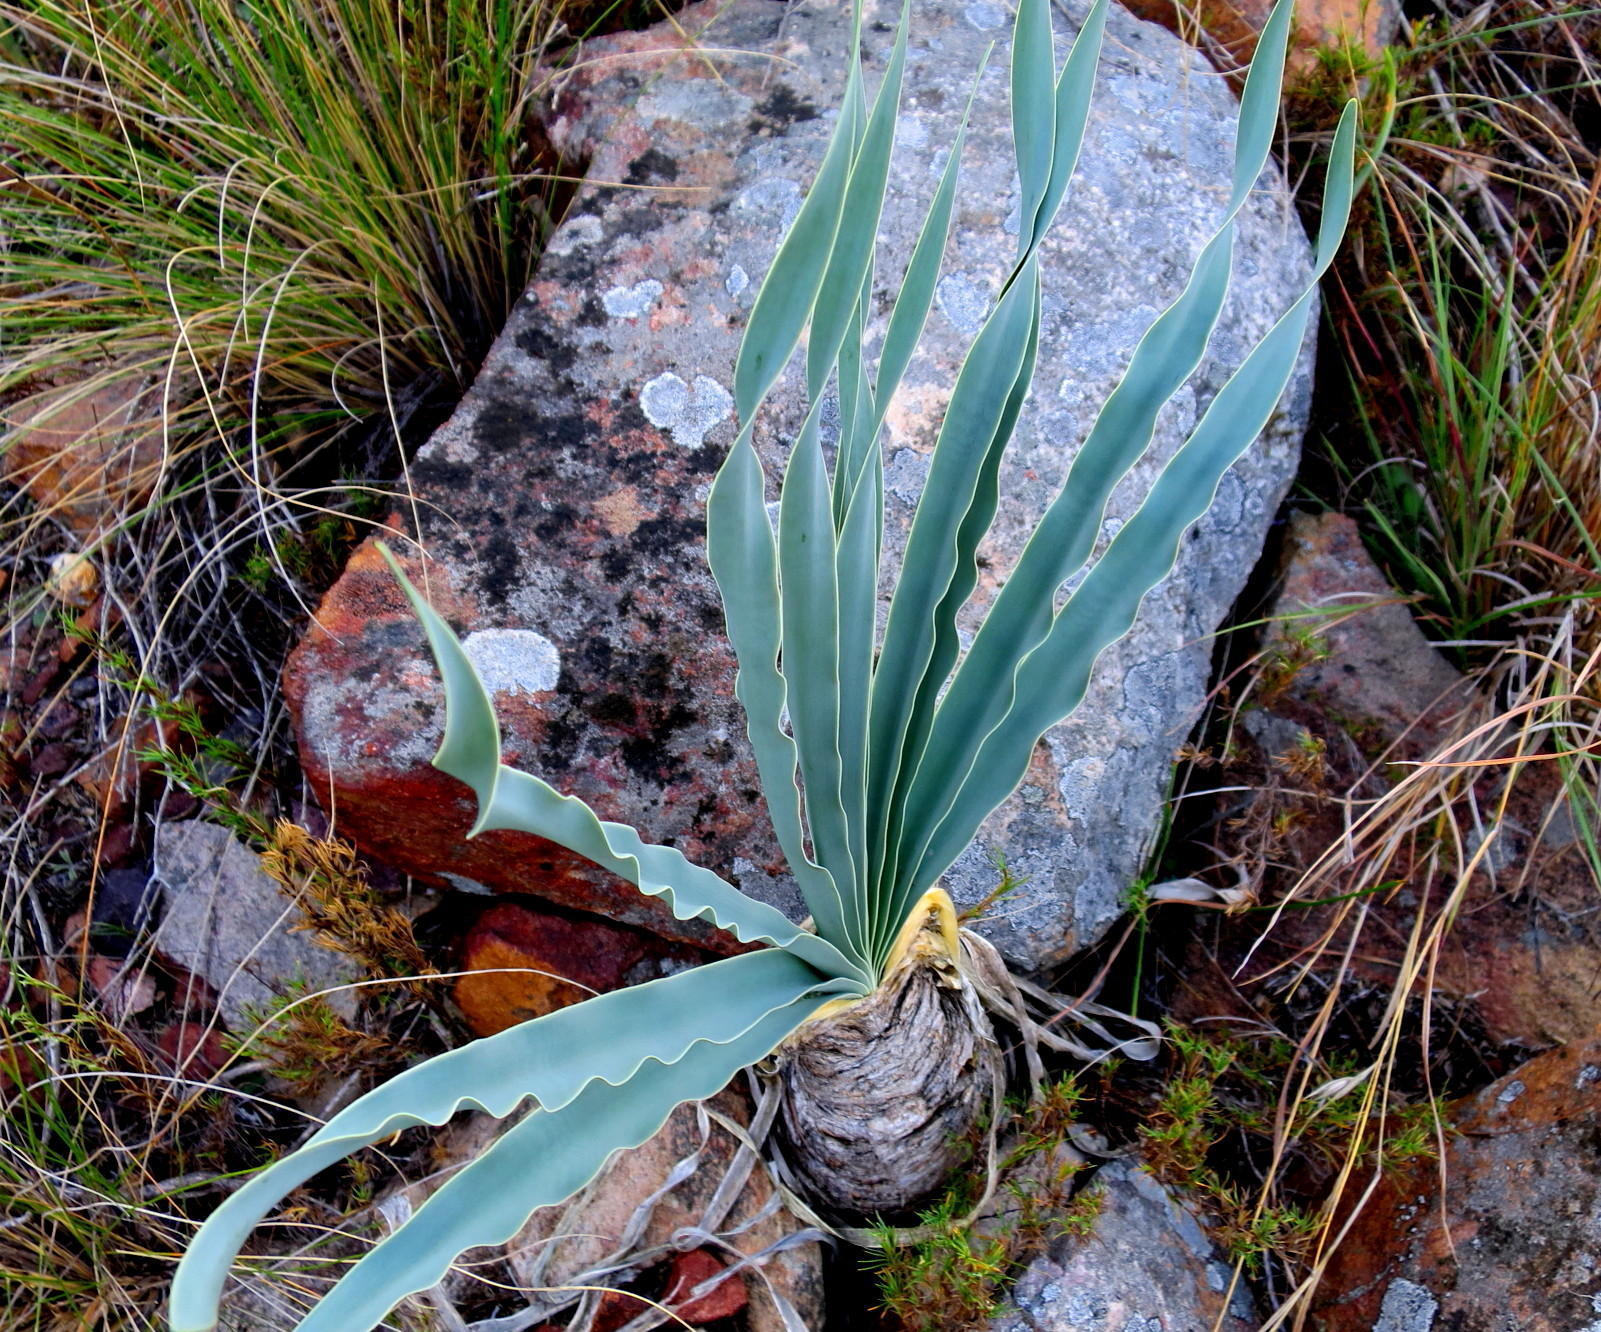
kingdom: Plantae
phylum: Tracheophyta
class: Liliopsida
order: Asparagales
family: Amaryllidaceae
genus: Boophone
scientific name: Boophone disticha
